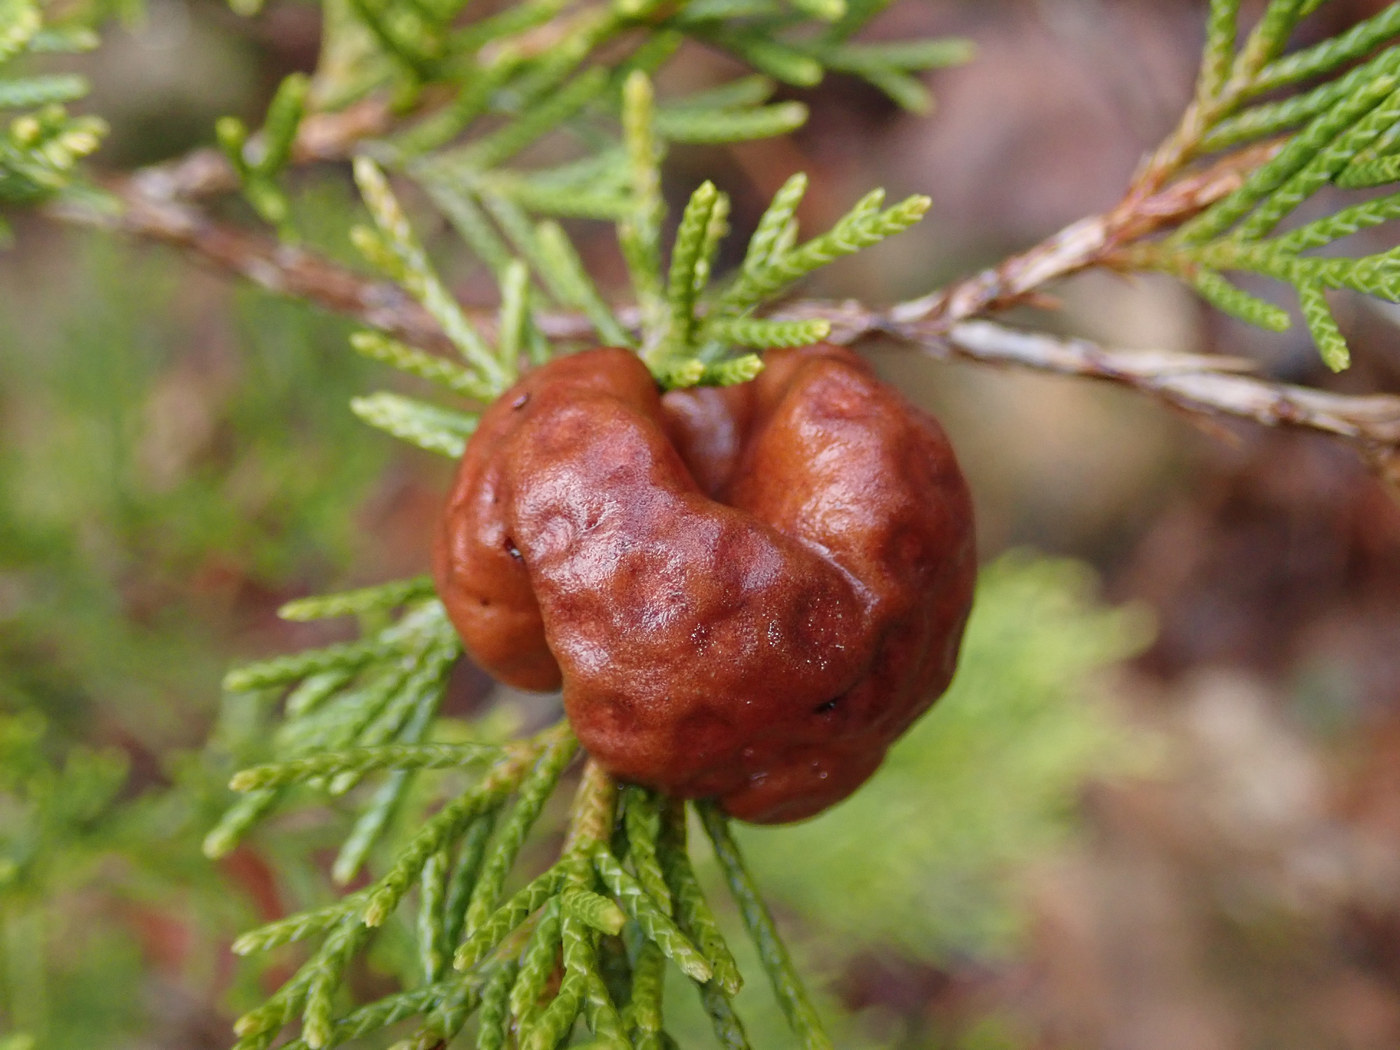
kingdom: Fungi
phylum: Basidiomycota
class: Pucciniomycetes
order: Pucciniales
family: Gymnosporangiaceae
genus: Gymnosporangium
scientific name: Gymnosporangium juniperi-virginianae
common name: Juniper-apple rust
